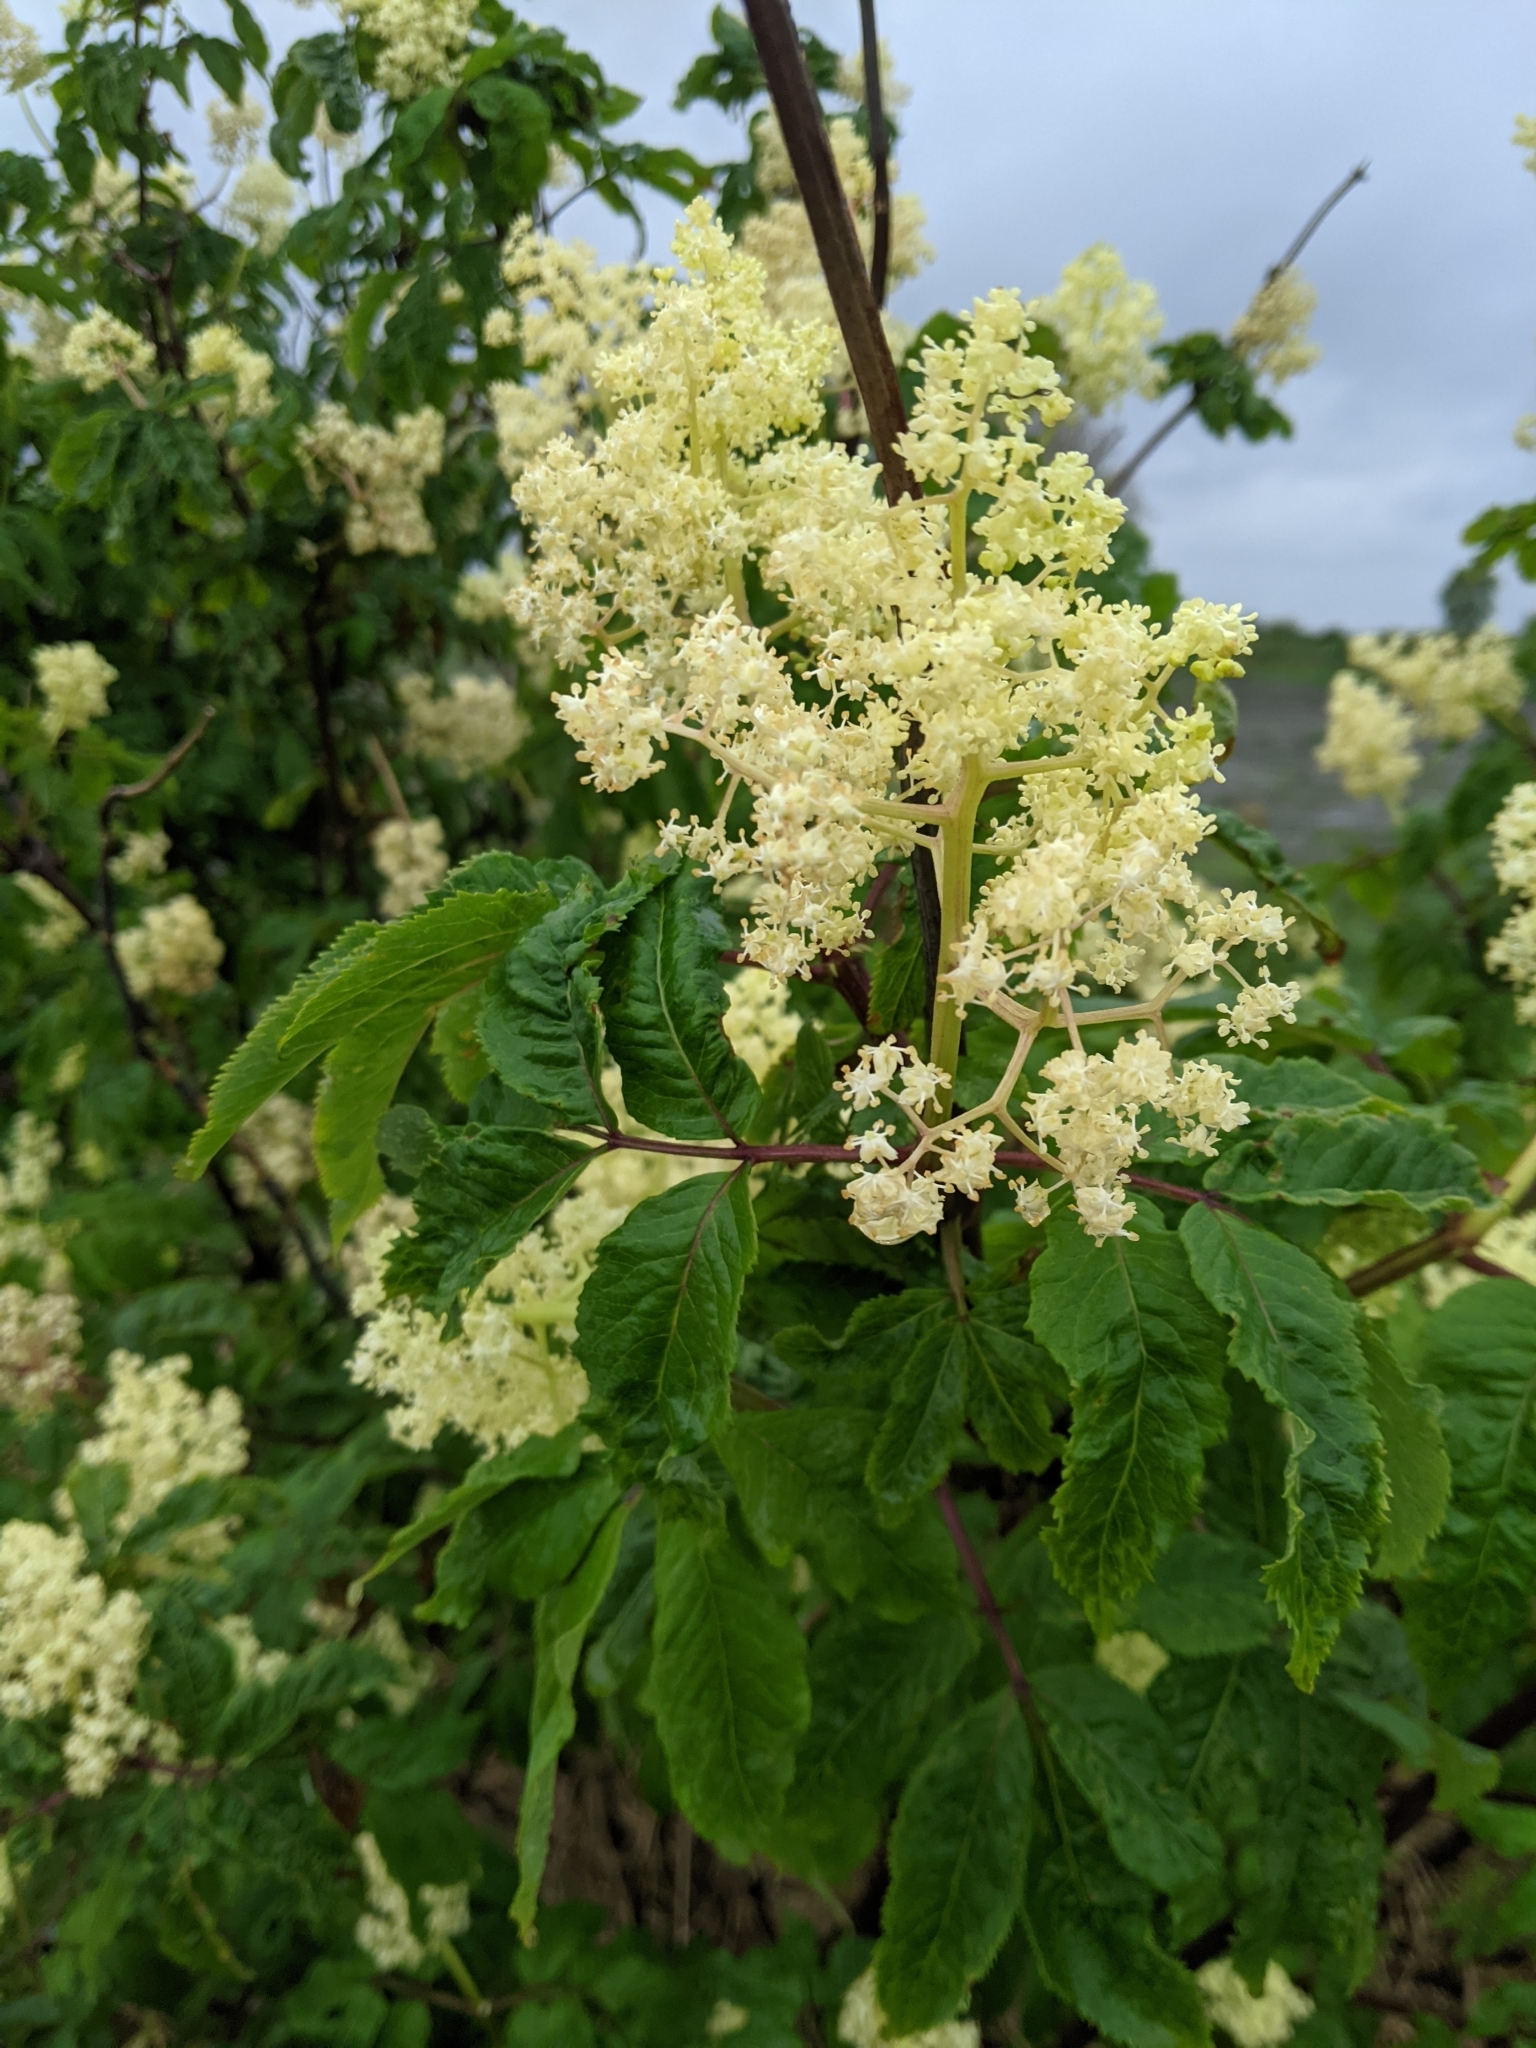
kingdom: Plantae
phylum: Tracheophyta
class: Magnoliopsida
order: Dipsacales
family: Viburnaceae
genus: Sambucus
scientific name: Sambucus racemosa
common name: Red-berried elder
